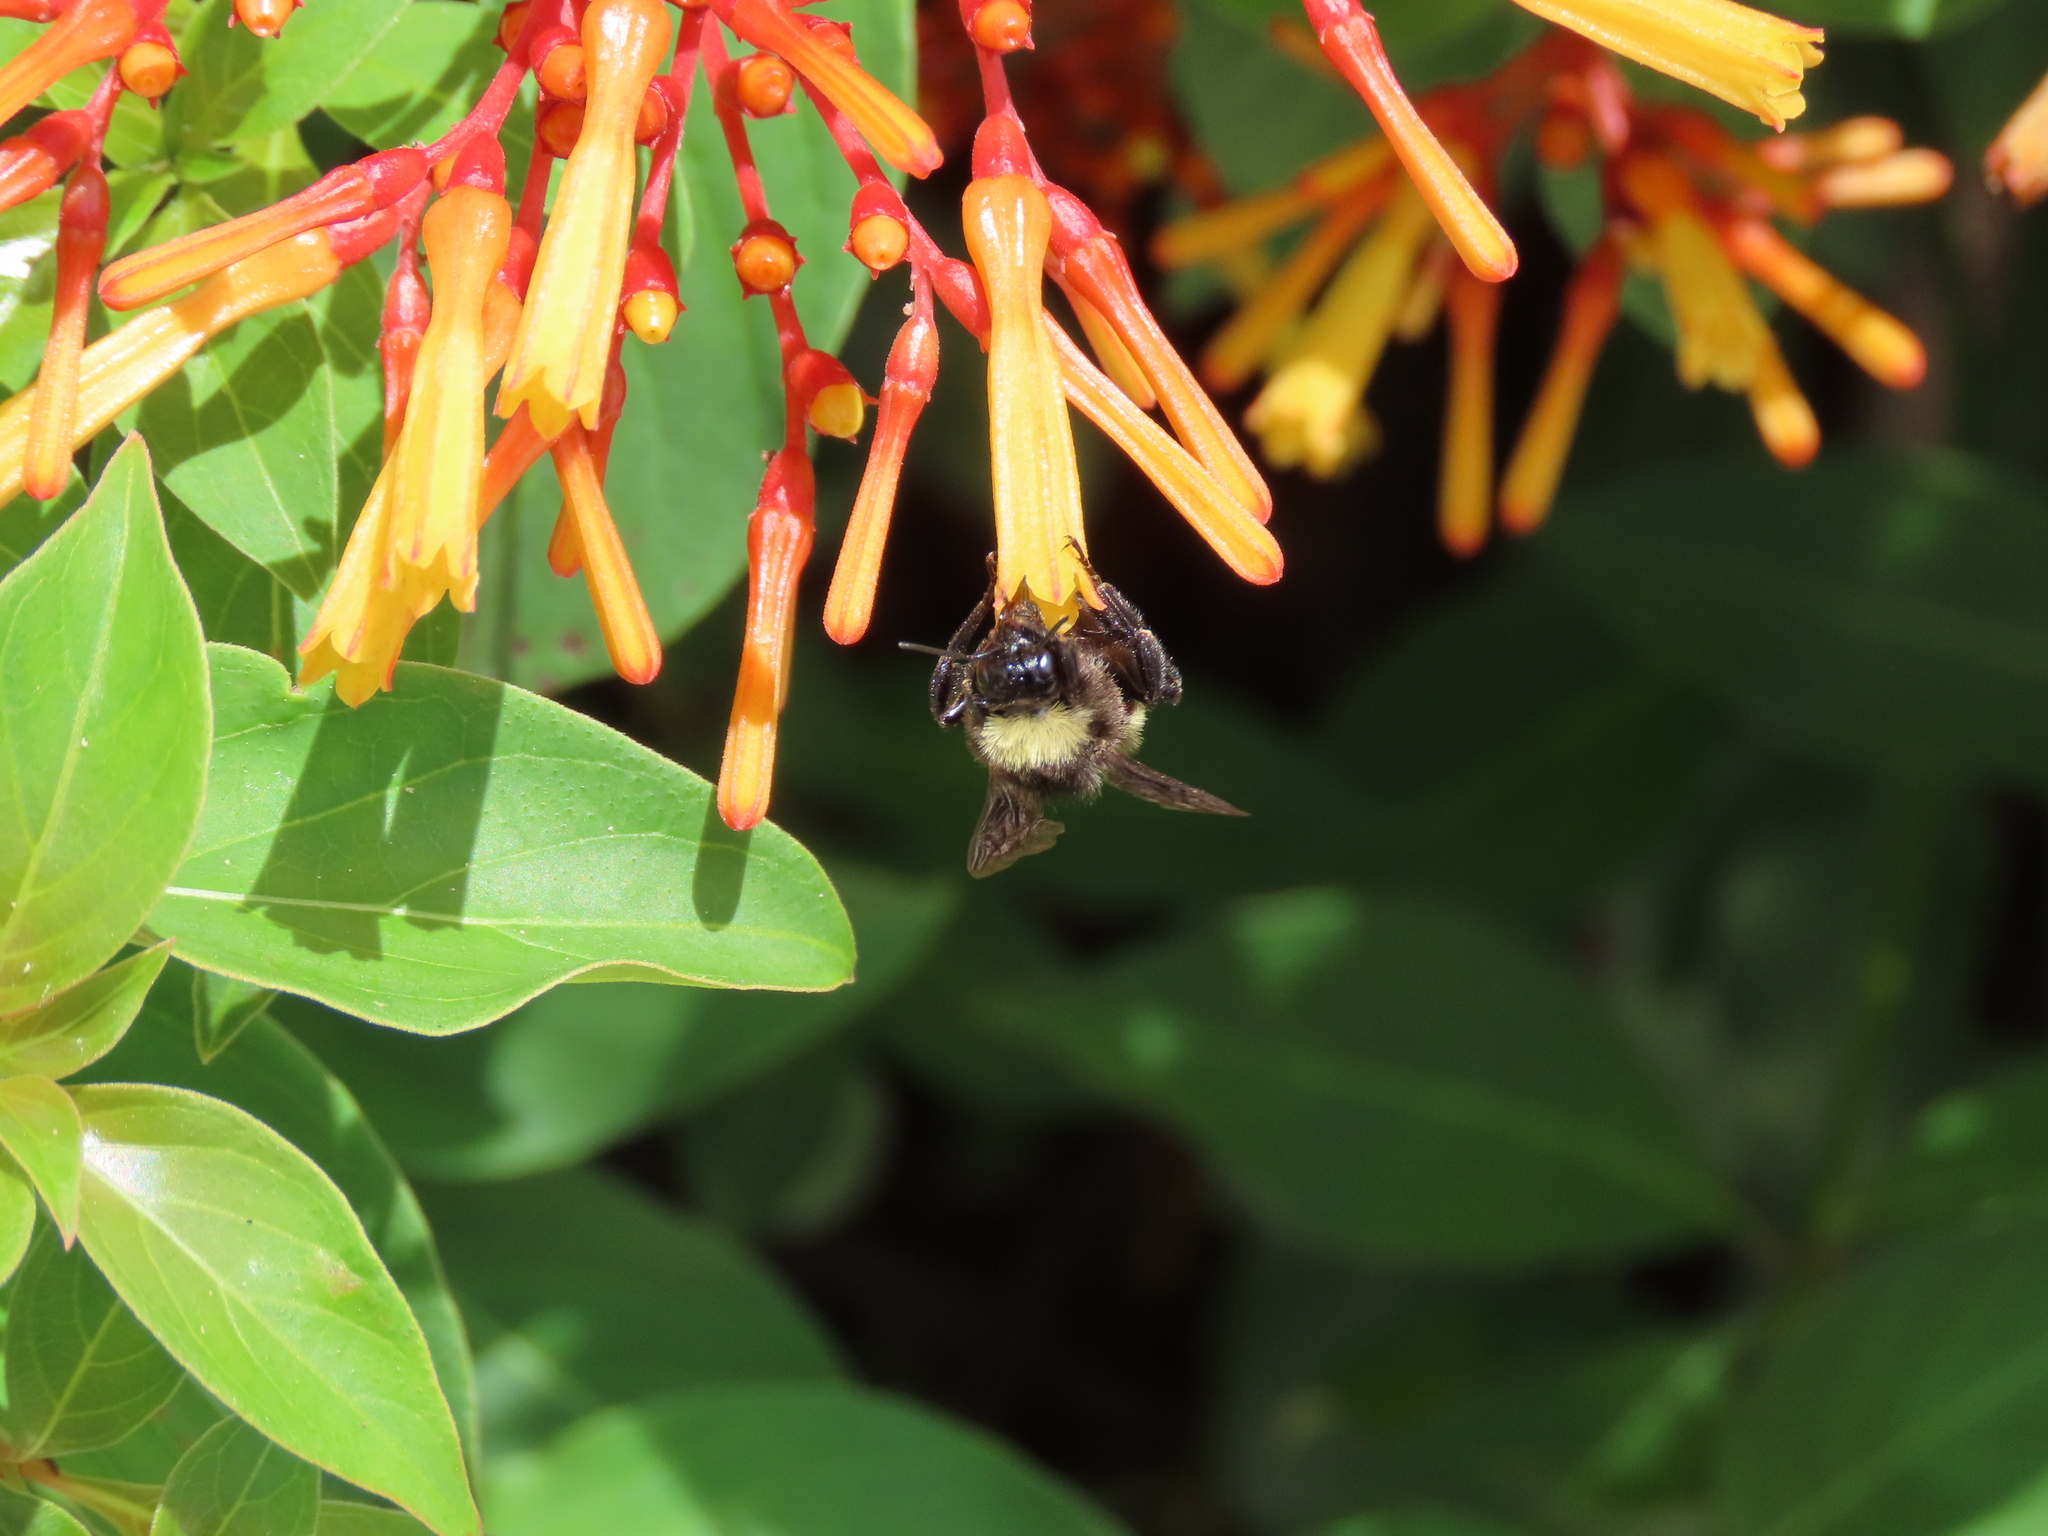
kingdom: Animalia
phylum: Arthropoda
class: Insecta
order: Hymenoptera
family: Apidae
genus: Bombus
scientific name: Bombus pensylvanicus
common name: Bumble bee
